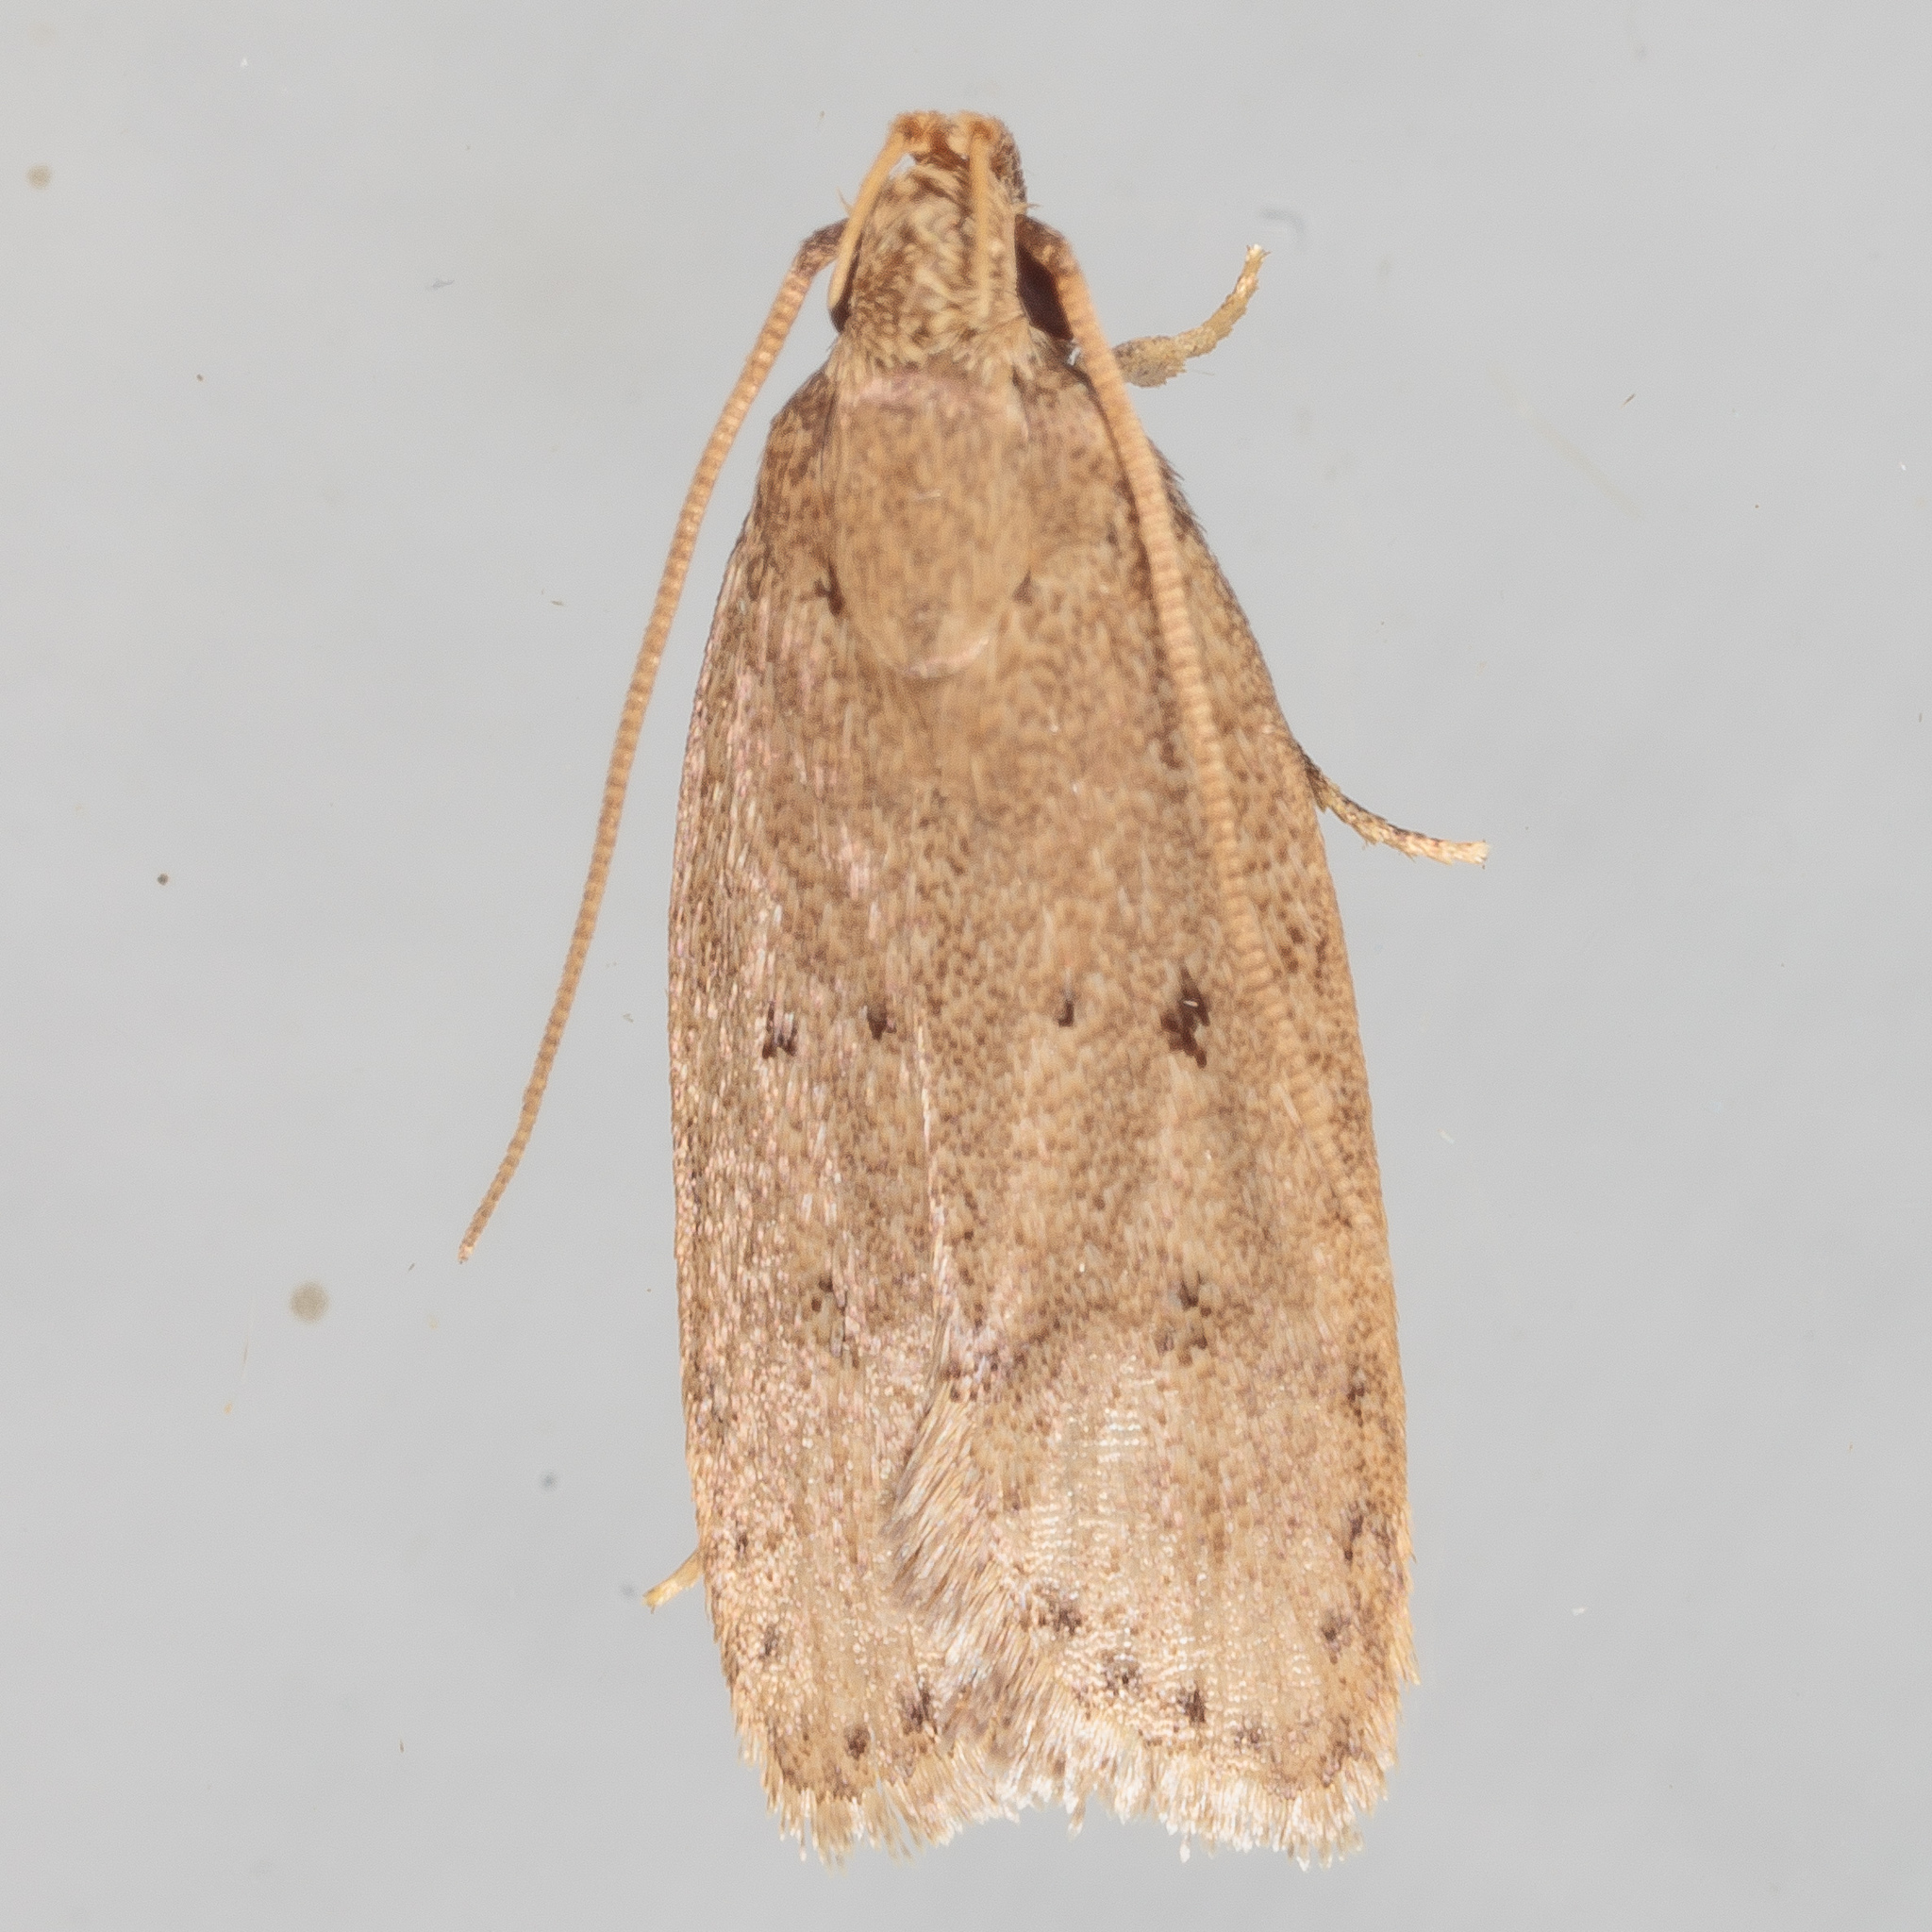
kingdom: Animalia
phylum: Arthropoda
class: Insecta
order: Lepidoptera
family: Autostichidae
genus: Autosticha
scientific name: Autosticha kyotensis
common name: Kyoto moth
